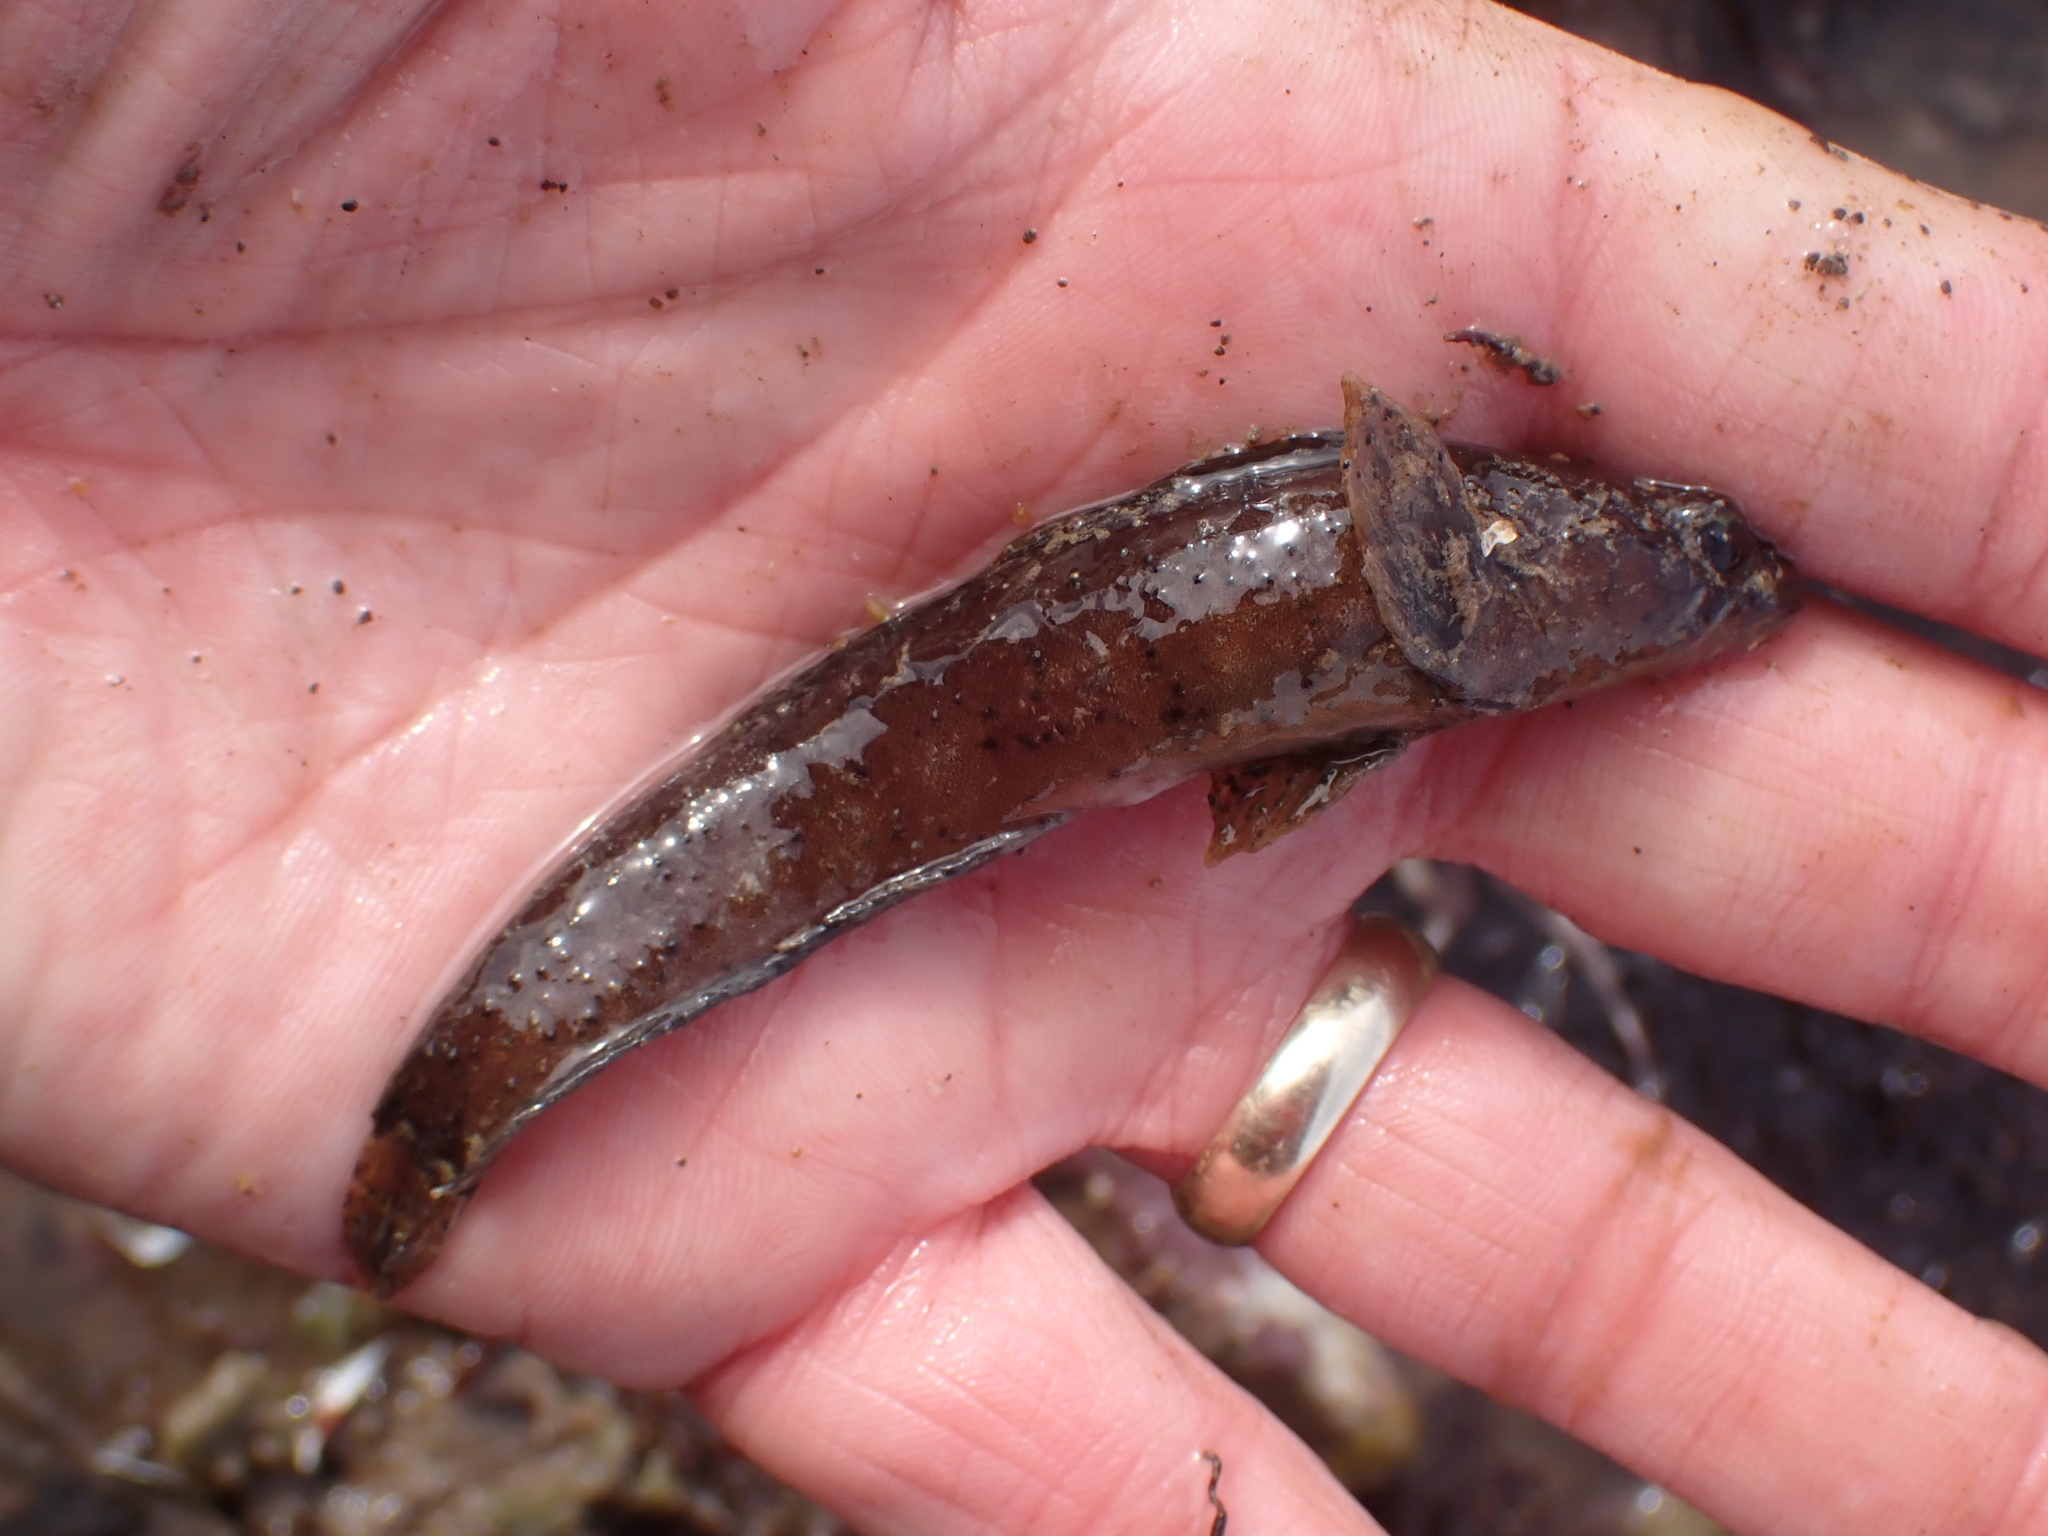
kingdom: Animalia
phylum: Chordata
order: Perciformes
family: Stichaeidae
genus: Ulvaria
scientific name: Ulvaria subbifurcata
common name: Radiated shanny
